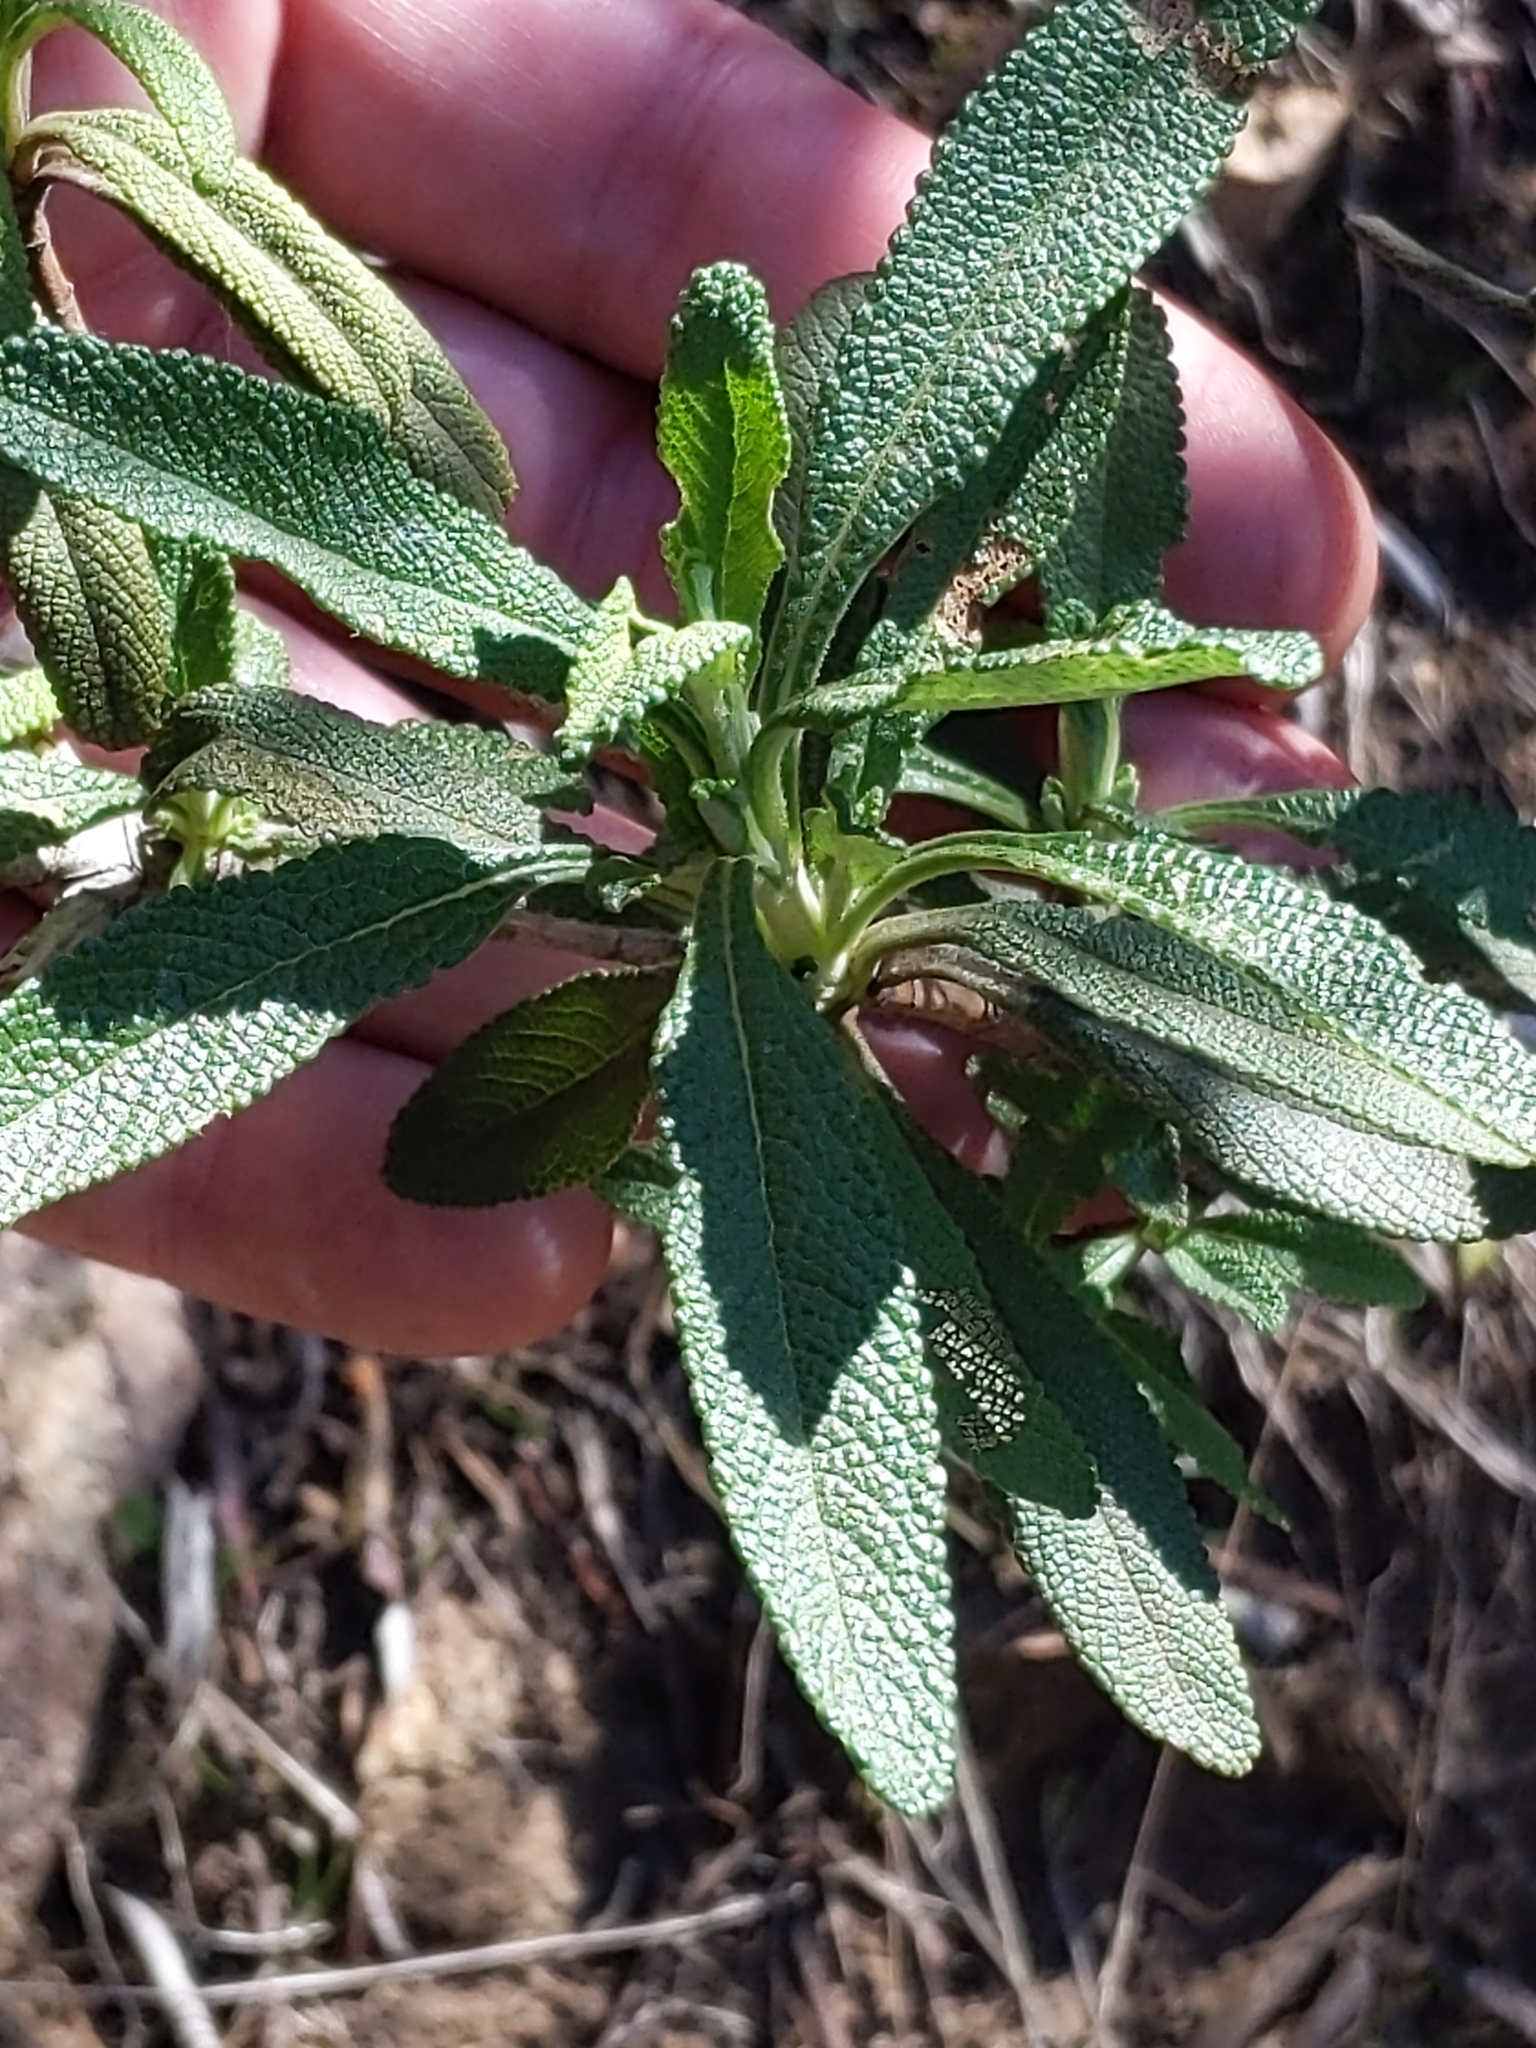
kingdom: Plantae
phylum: Tracheophyta
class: Magnoliopsida
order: Lamiales
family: Lamiaceae
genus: Salvia
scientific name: Salvia mellifera
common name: Black sage
